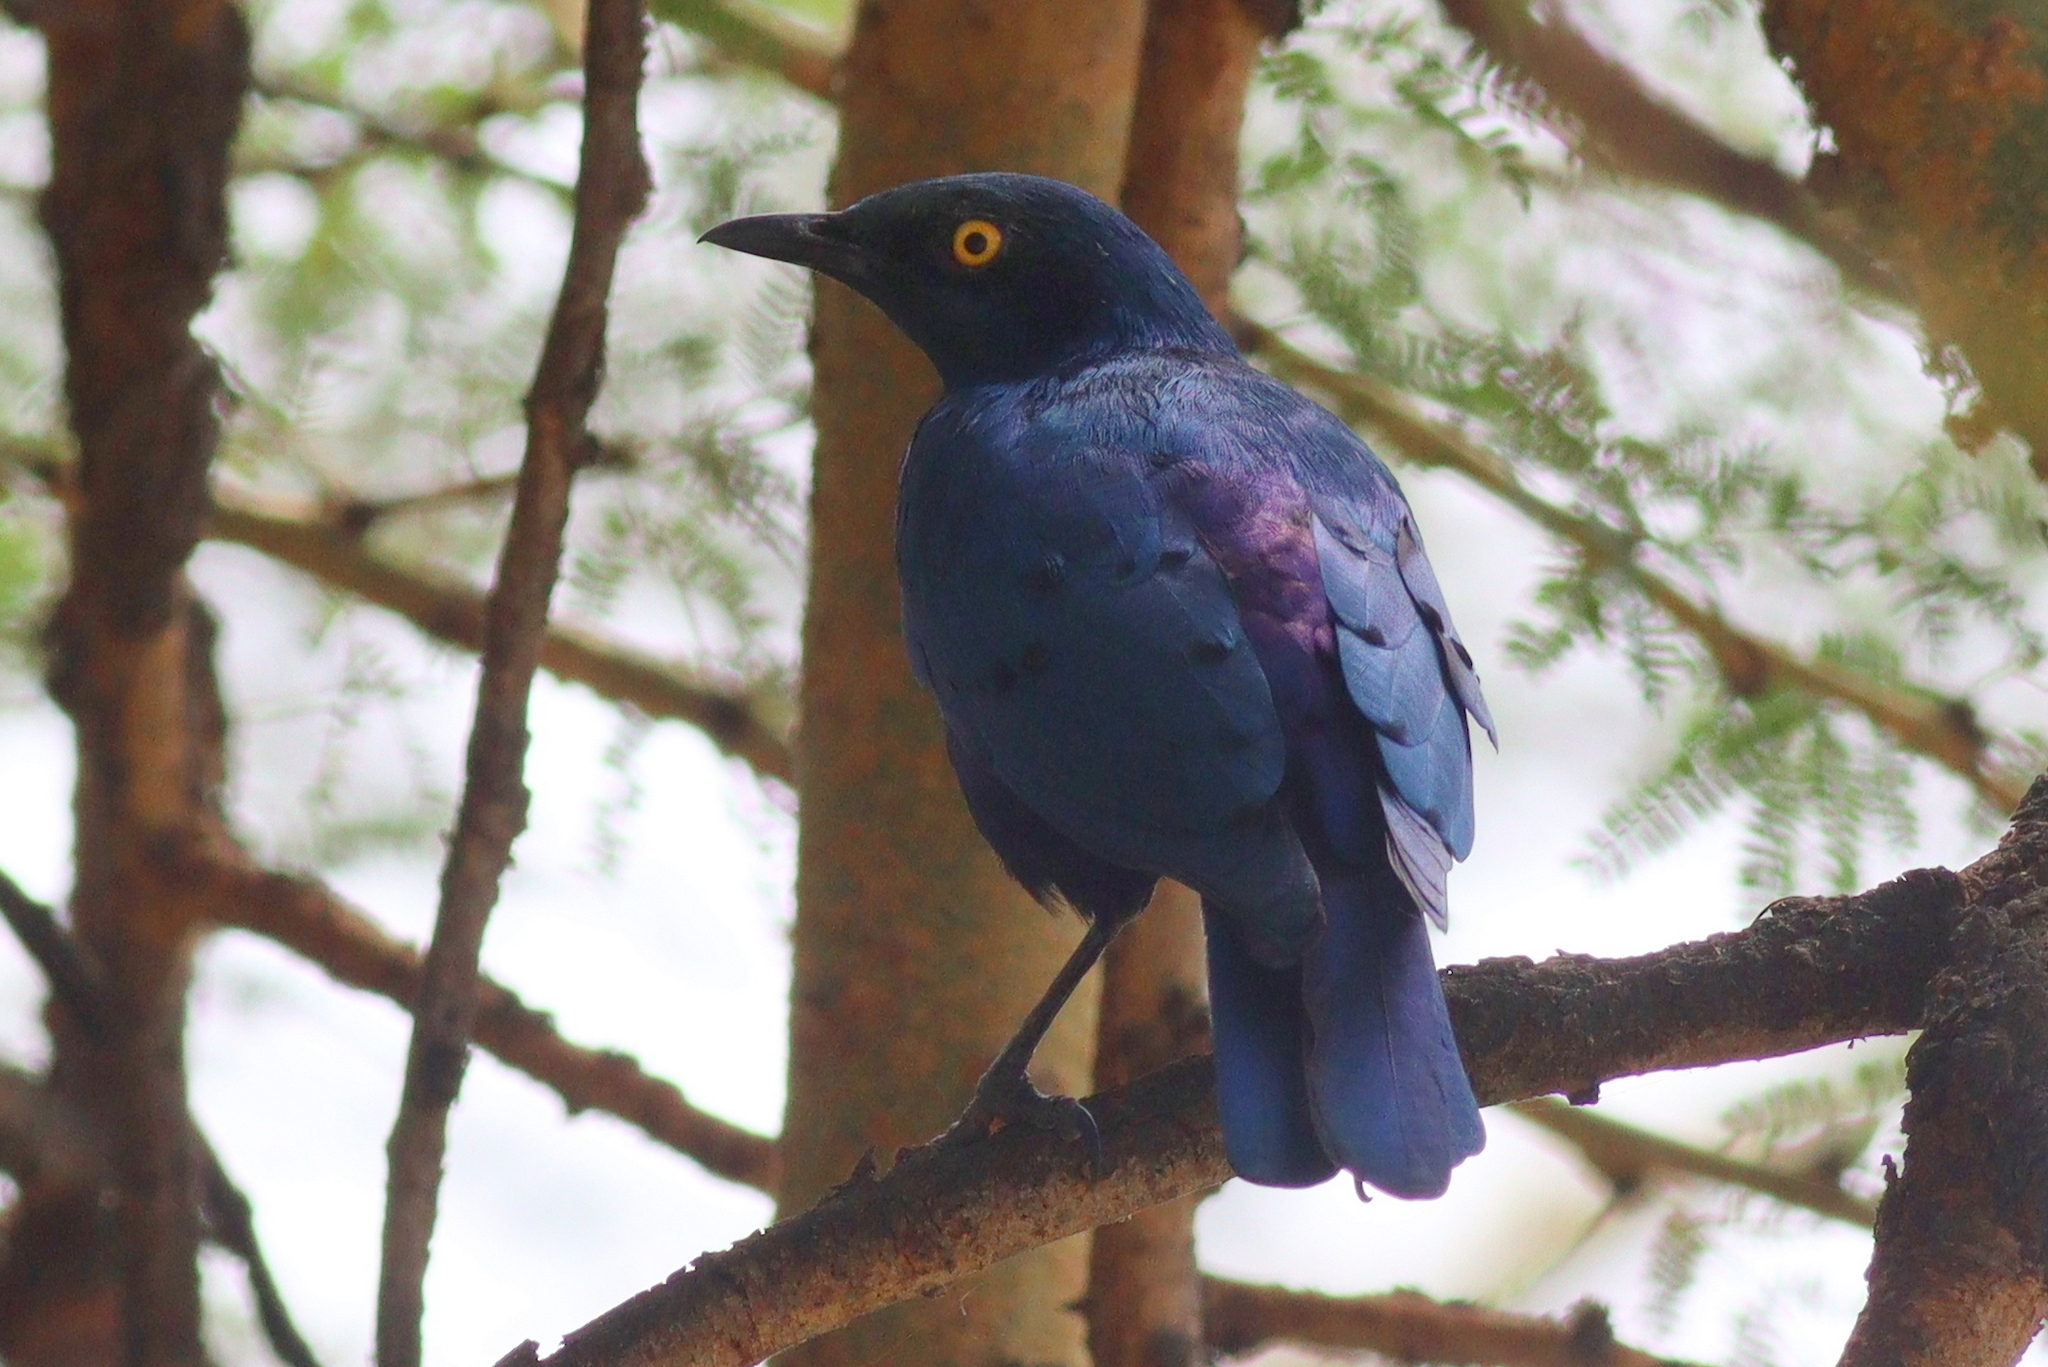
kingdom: Animalia
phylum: Chordata
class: Aves
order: Passeriformes
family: Sturnidae
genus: Lamprotornis
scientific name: Lamprotornis chalybaeus
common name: Greater blue-eared starling
